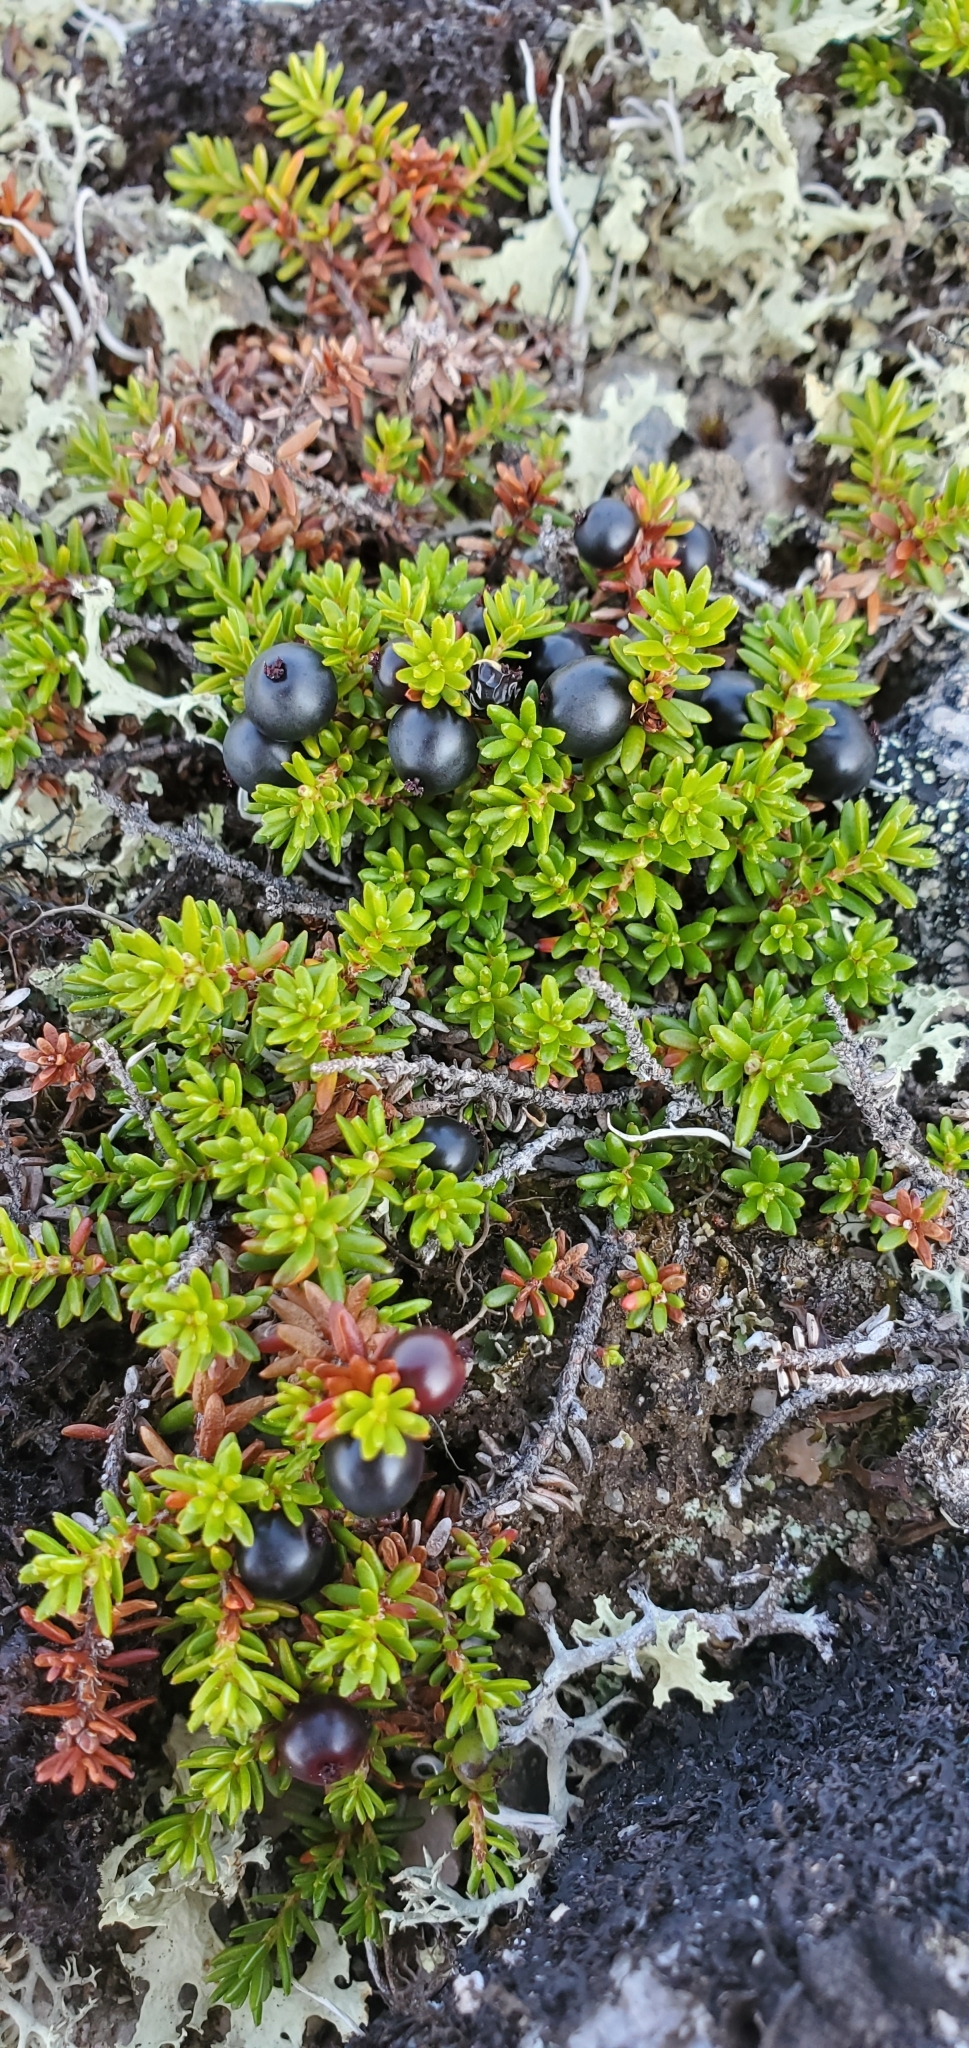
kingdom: Plantae
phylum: Tracheophyta
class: Magnoliopsida
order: Ericales
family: Ericaceae
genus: Empetrum
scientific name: Empetrum nigrum
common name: Black crowberry
